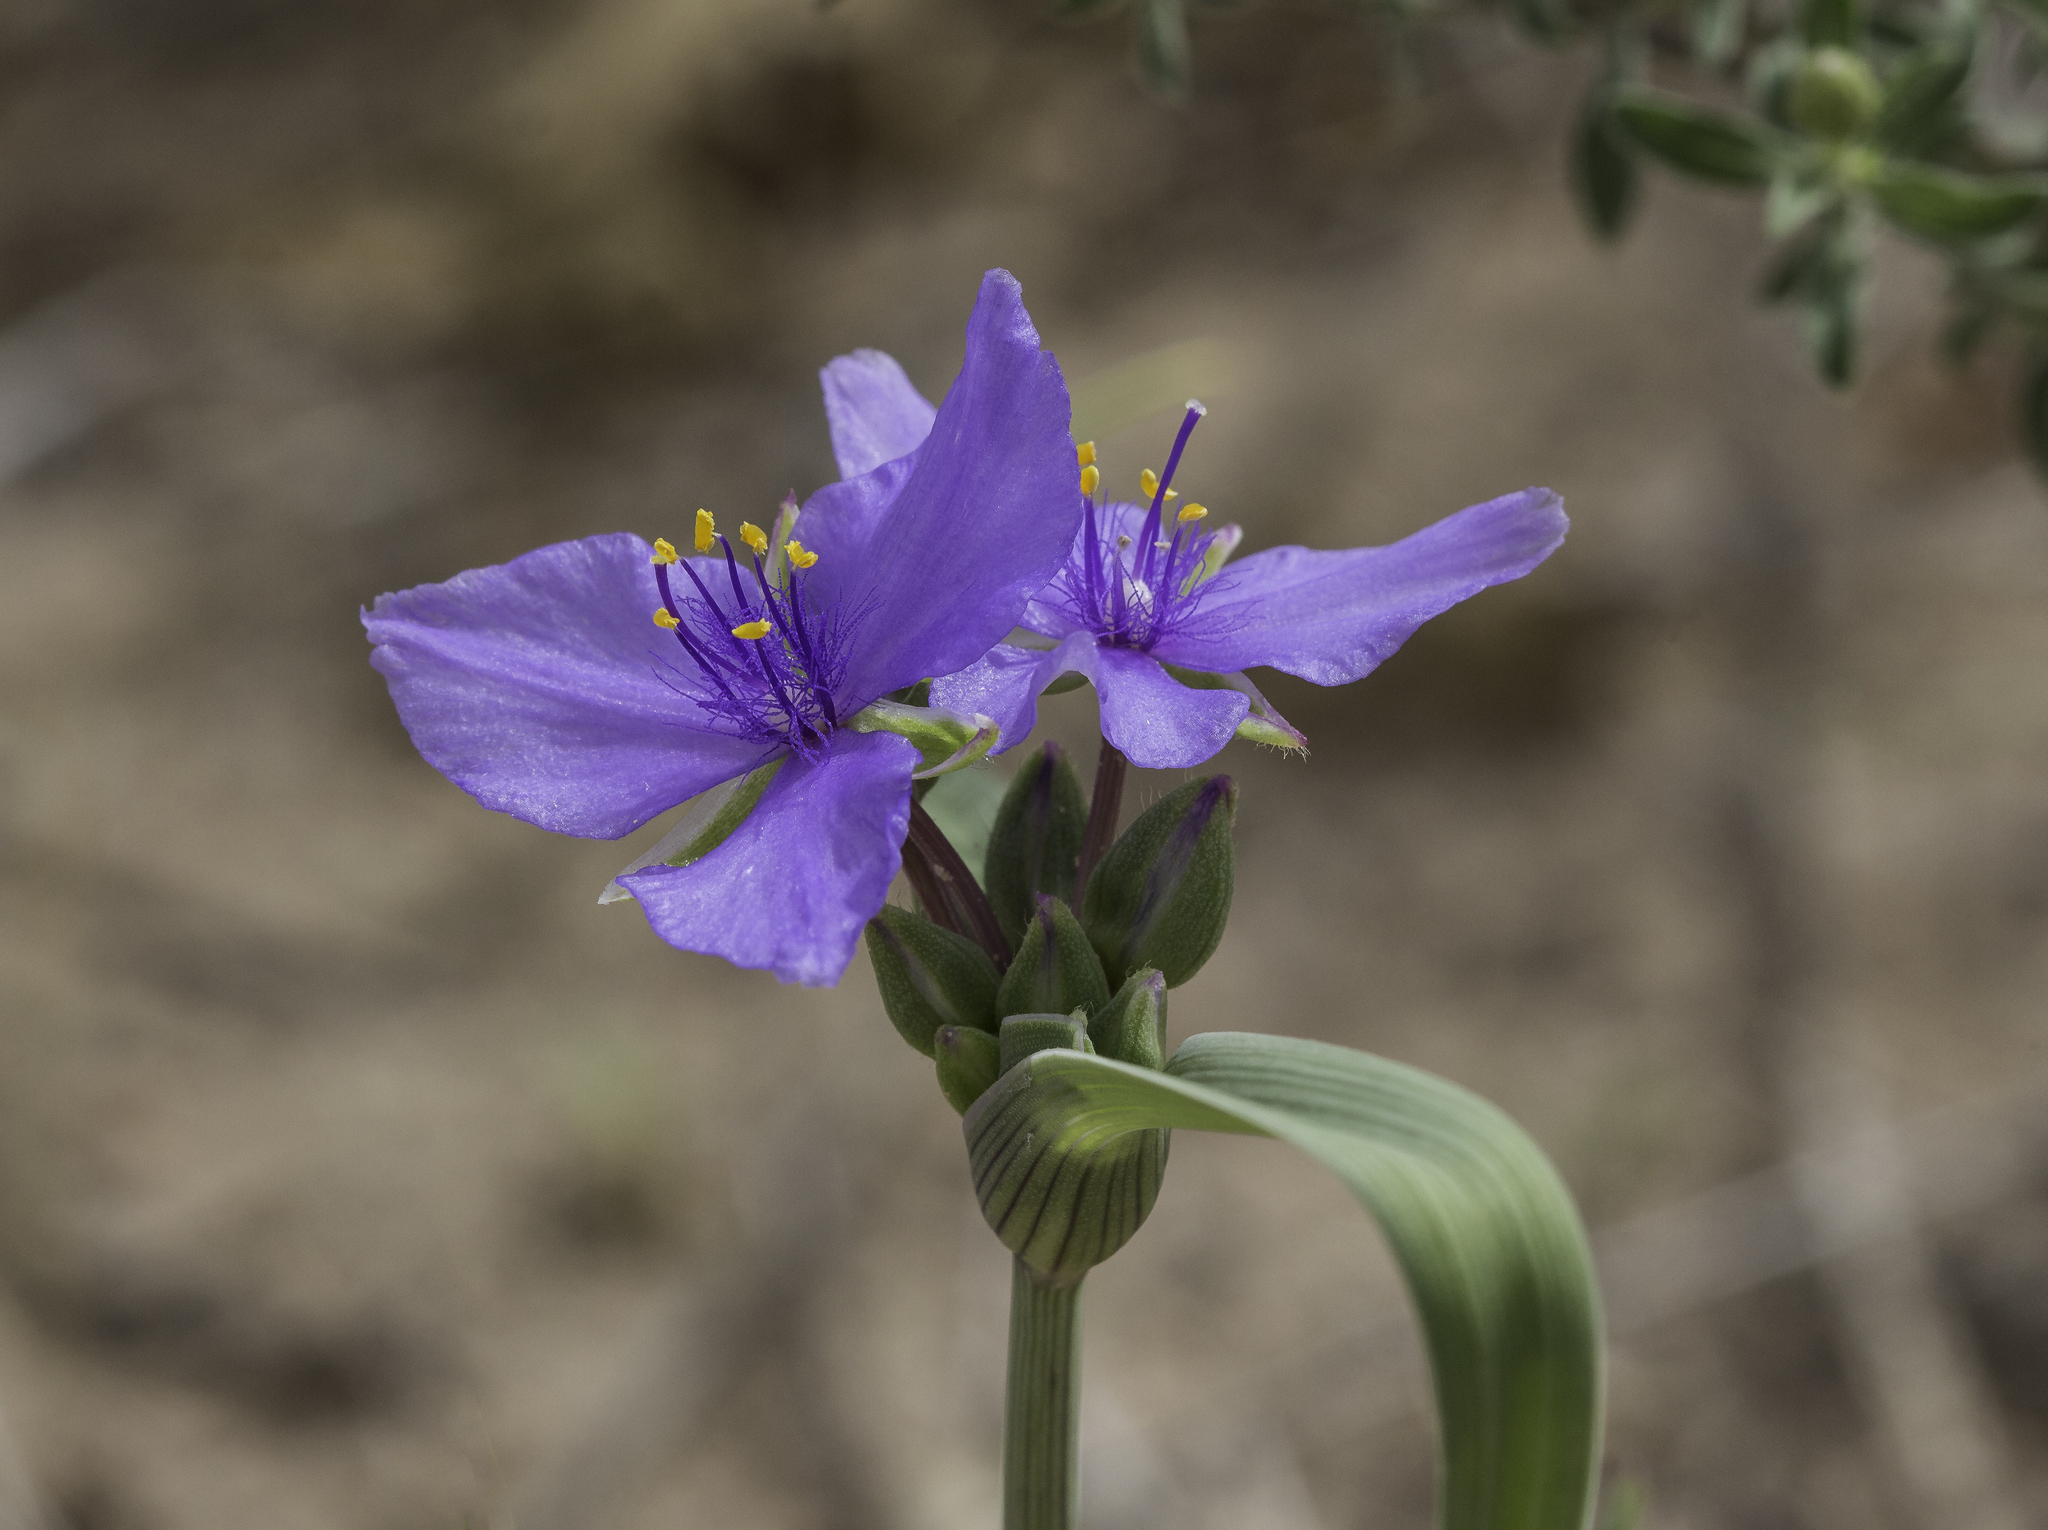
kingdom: Plantae
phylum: Tracheophyta
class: Liliopsida
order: Commelinales
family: Commelinaceae
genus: Tradescantia
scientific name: Tradescantia occidentalis
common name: Prairie spiderwort
